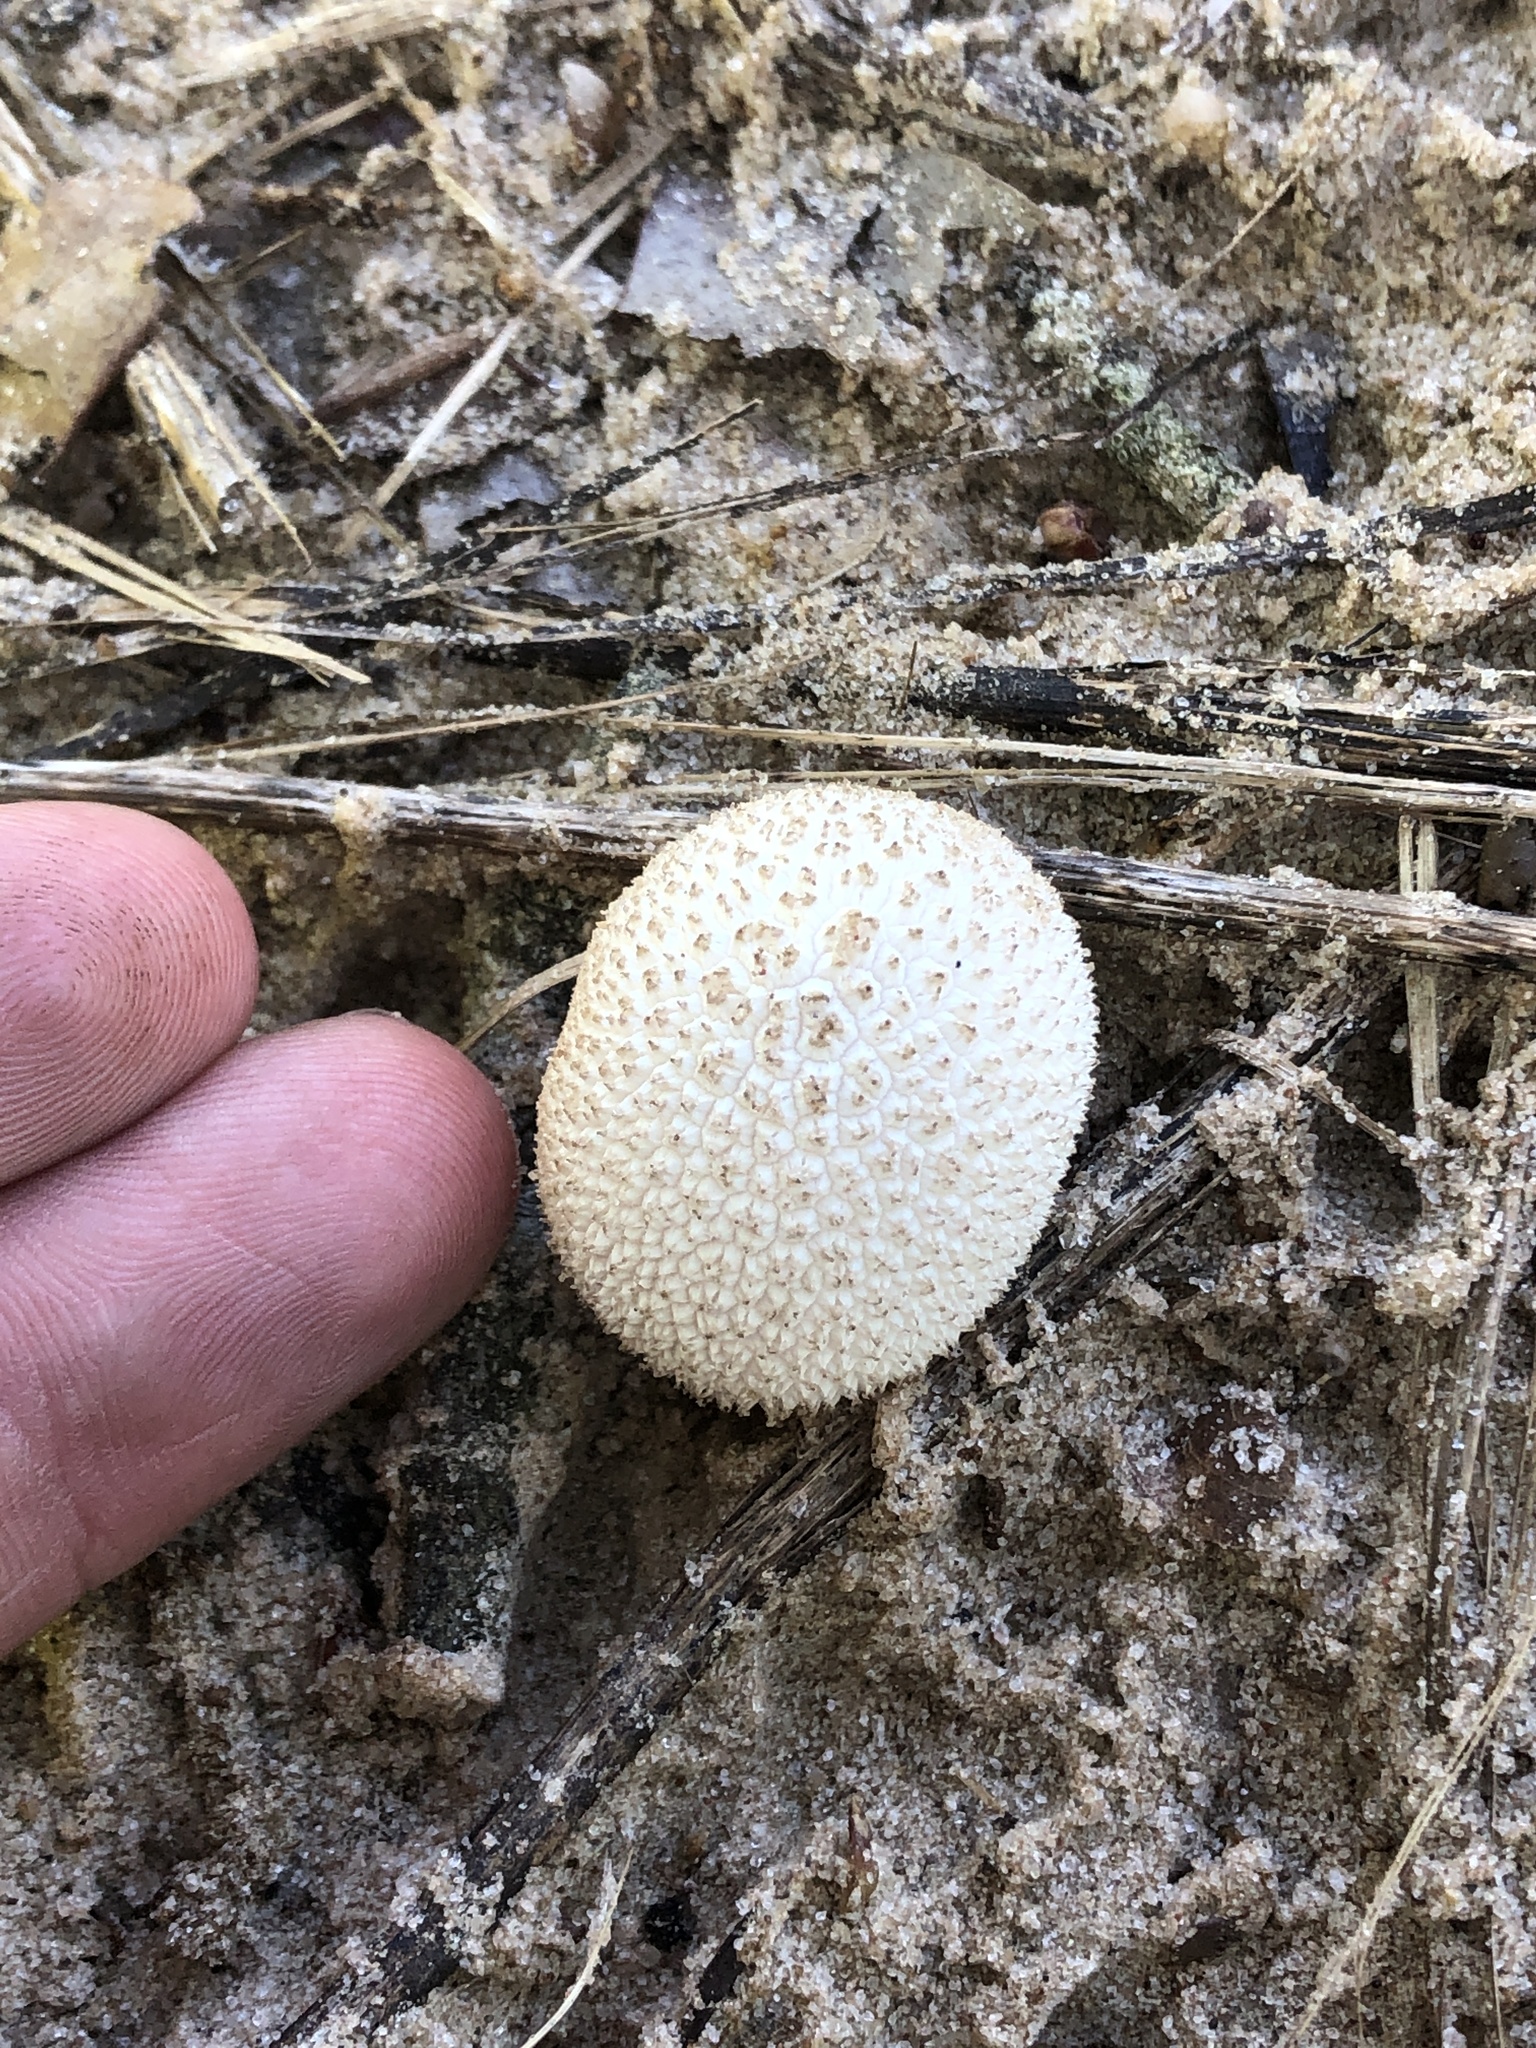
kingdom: Fungi
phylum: Basidiomycota
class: Agaricomycetes
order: Agaricales
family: Agaricaceae
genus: Lycoperdon
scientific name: Lycoperdon marginatum
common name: Peeling puffball
